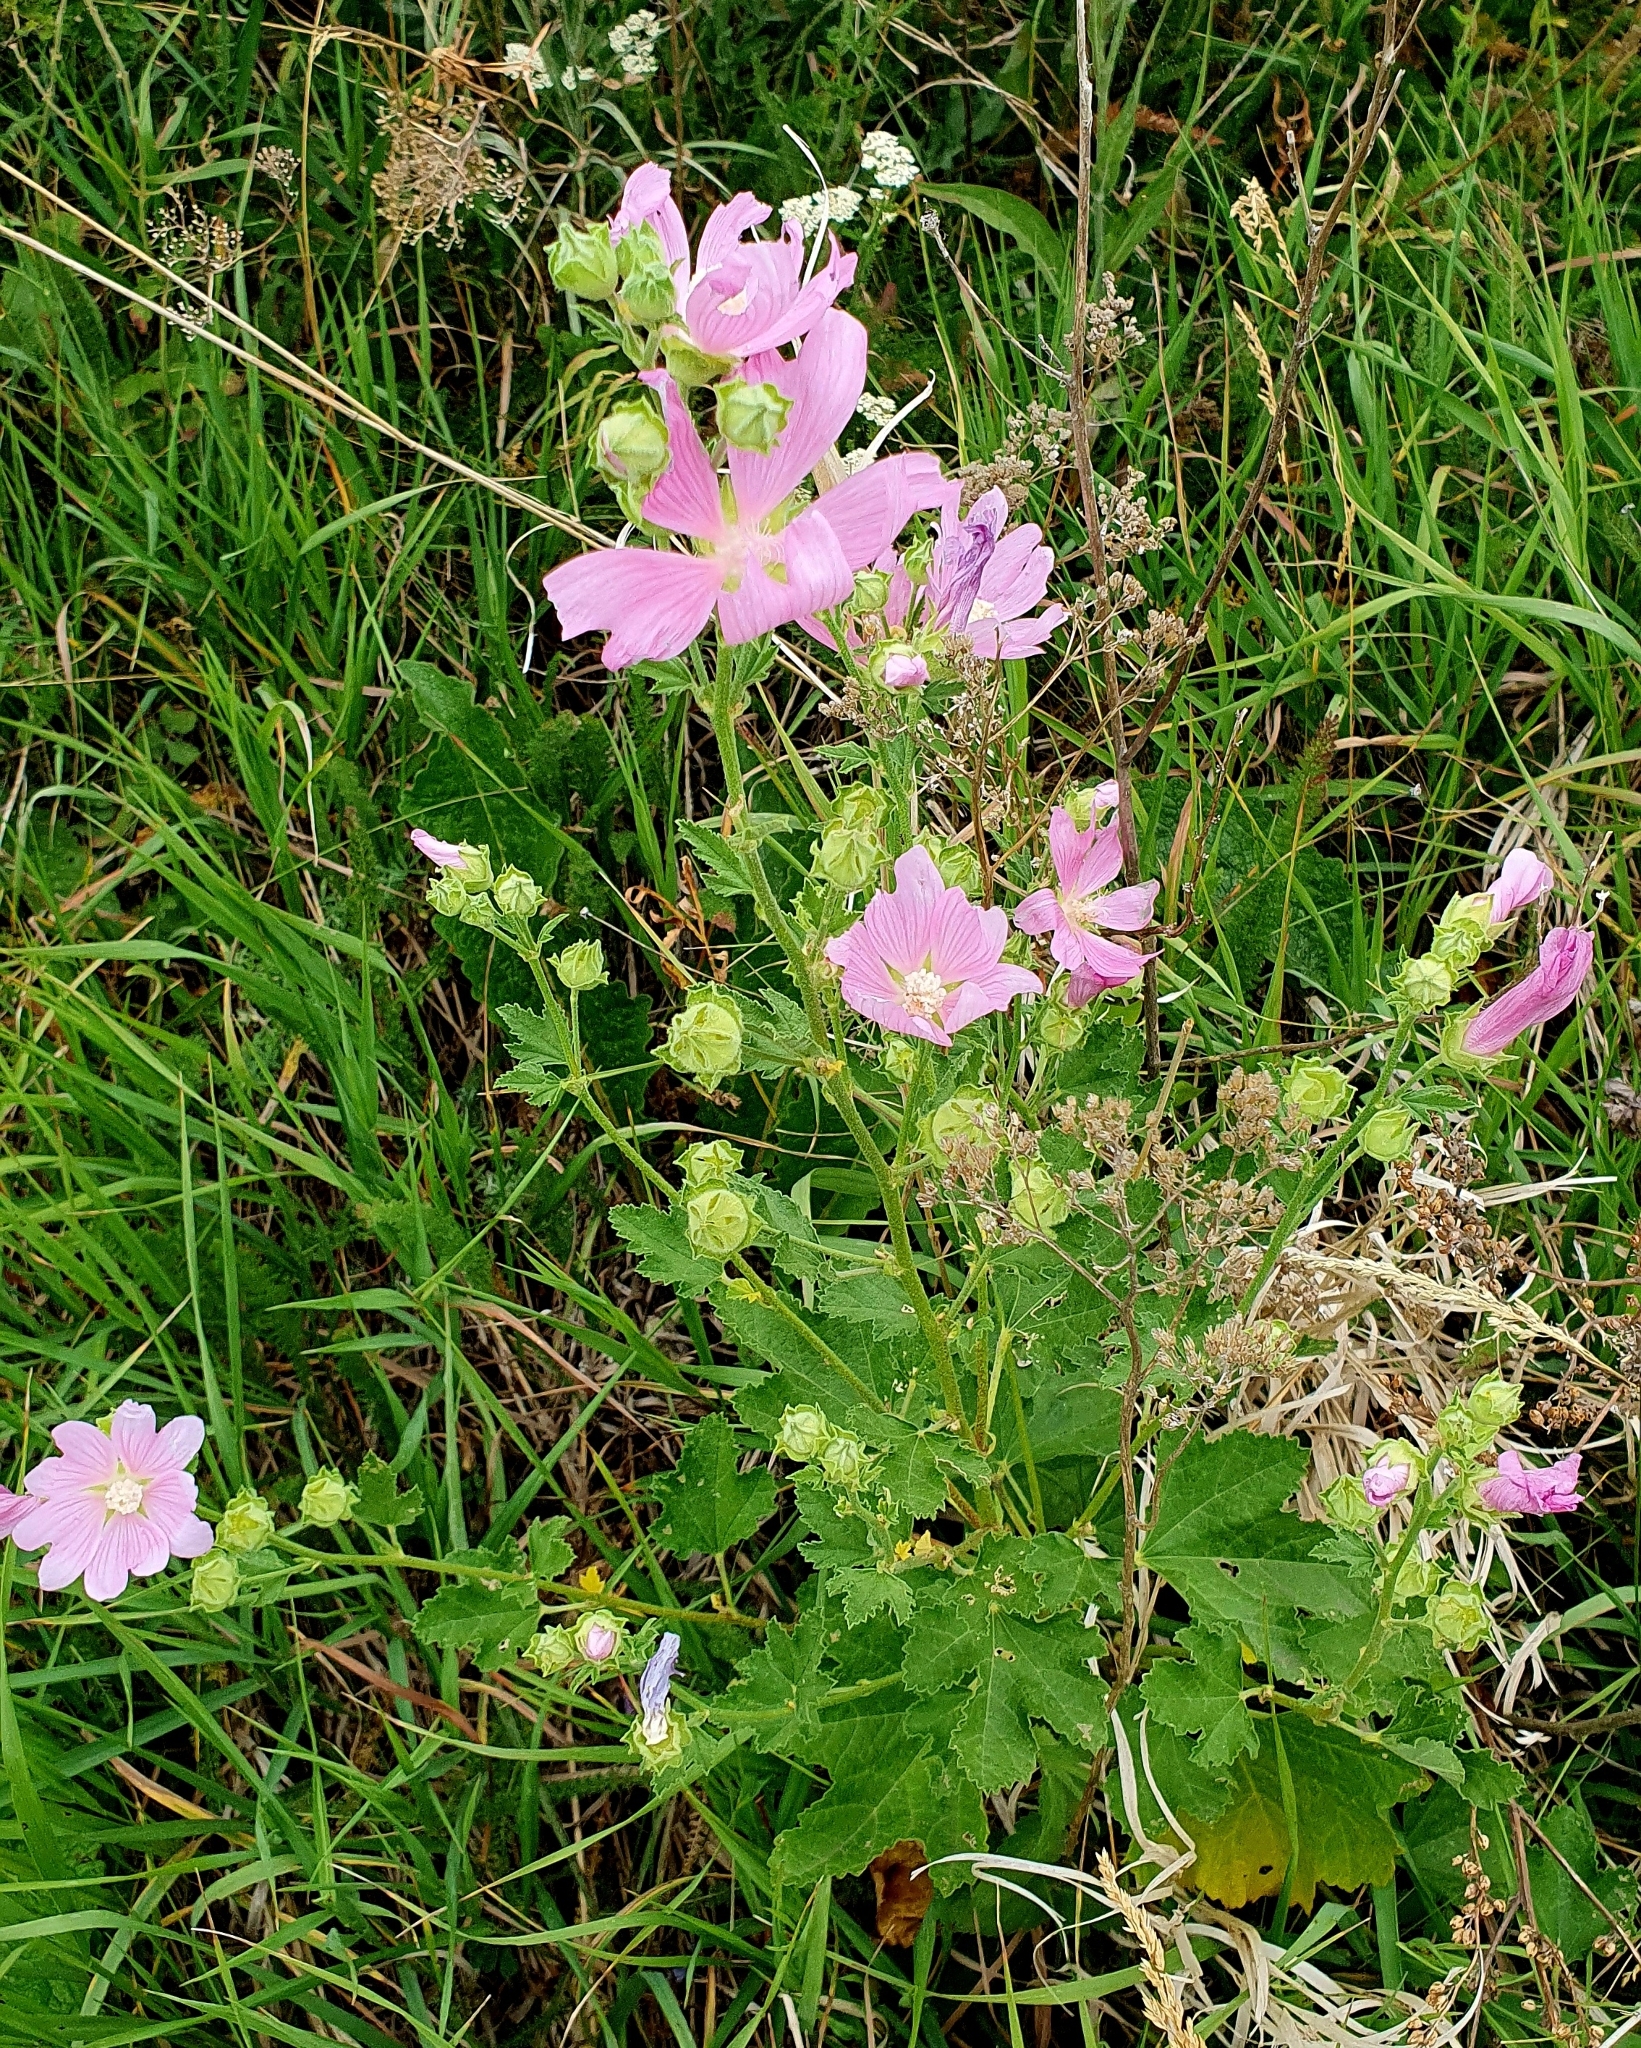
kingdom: Plantae
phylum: Tracheophyta
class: Magnoliopsida
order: Malvales
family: Malvaceae
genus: Malva
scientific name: Malva thuringiaca
